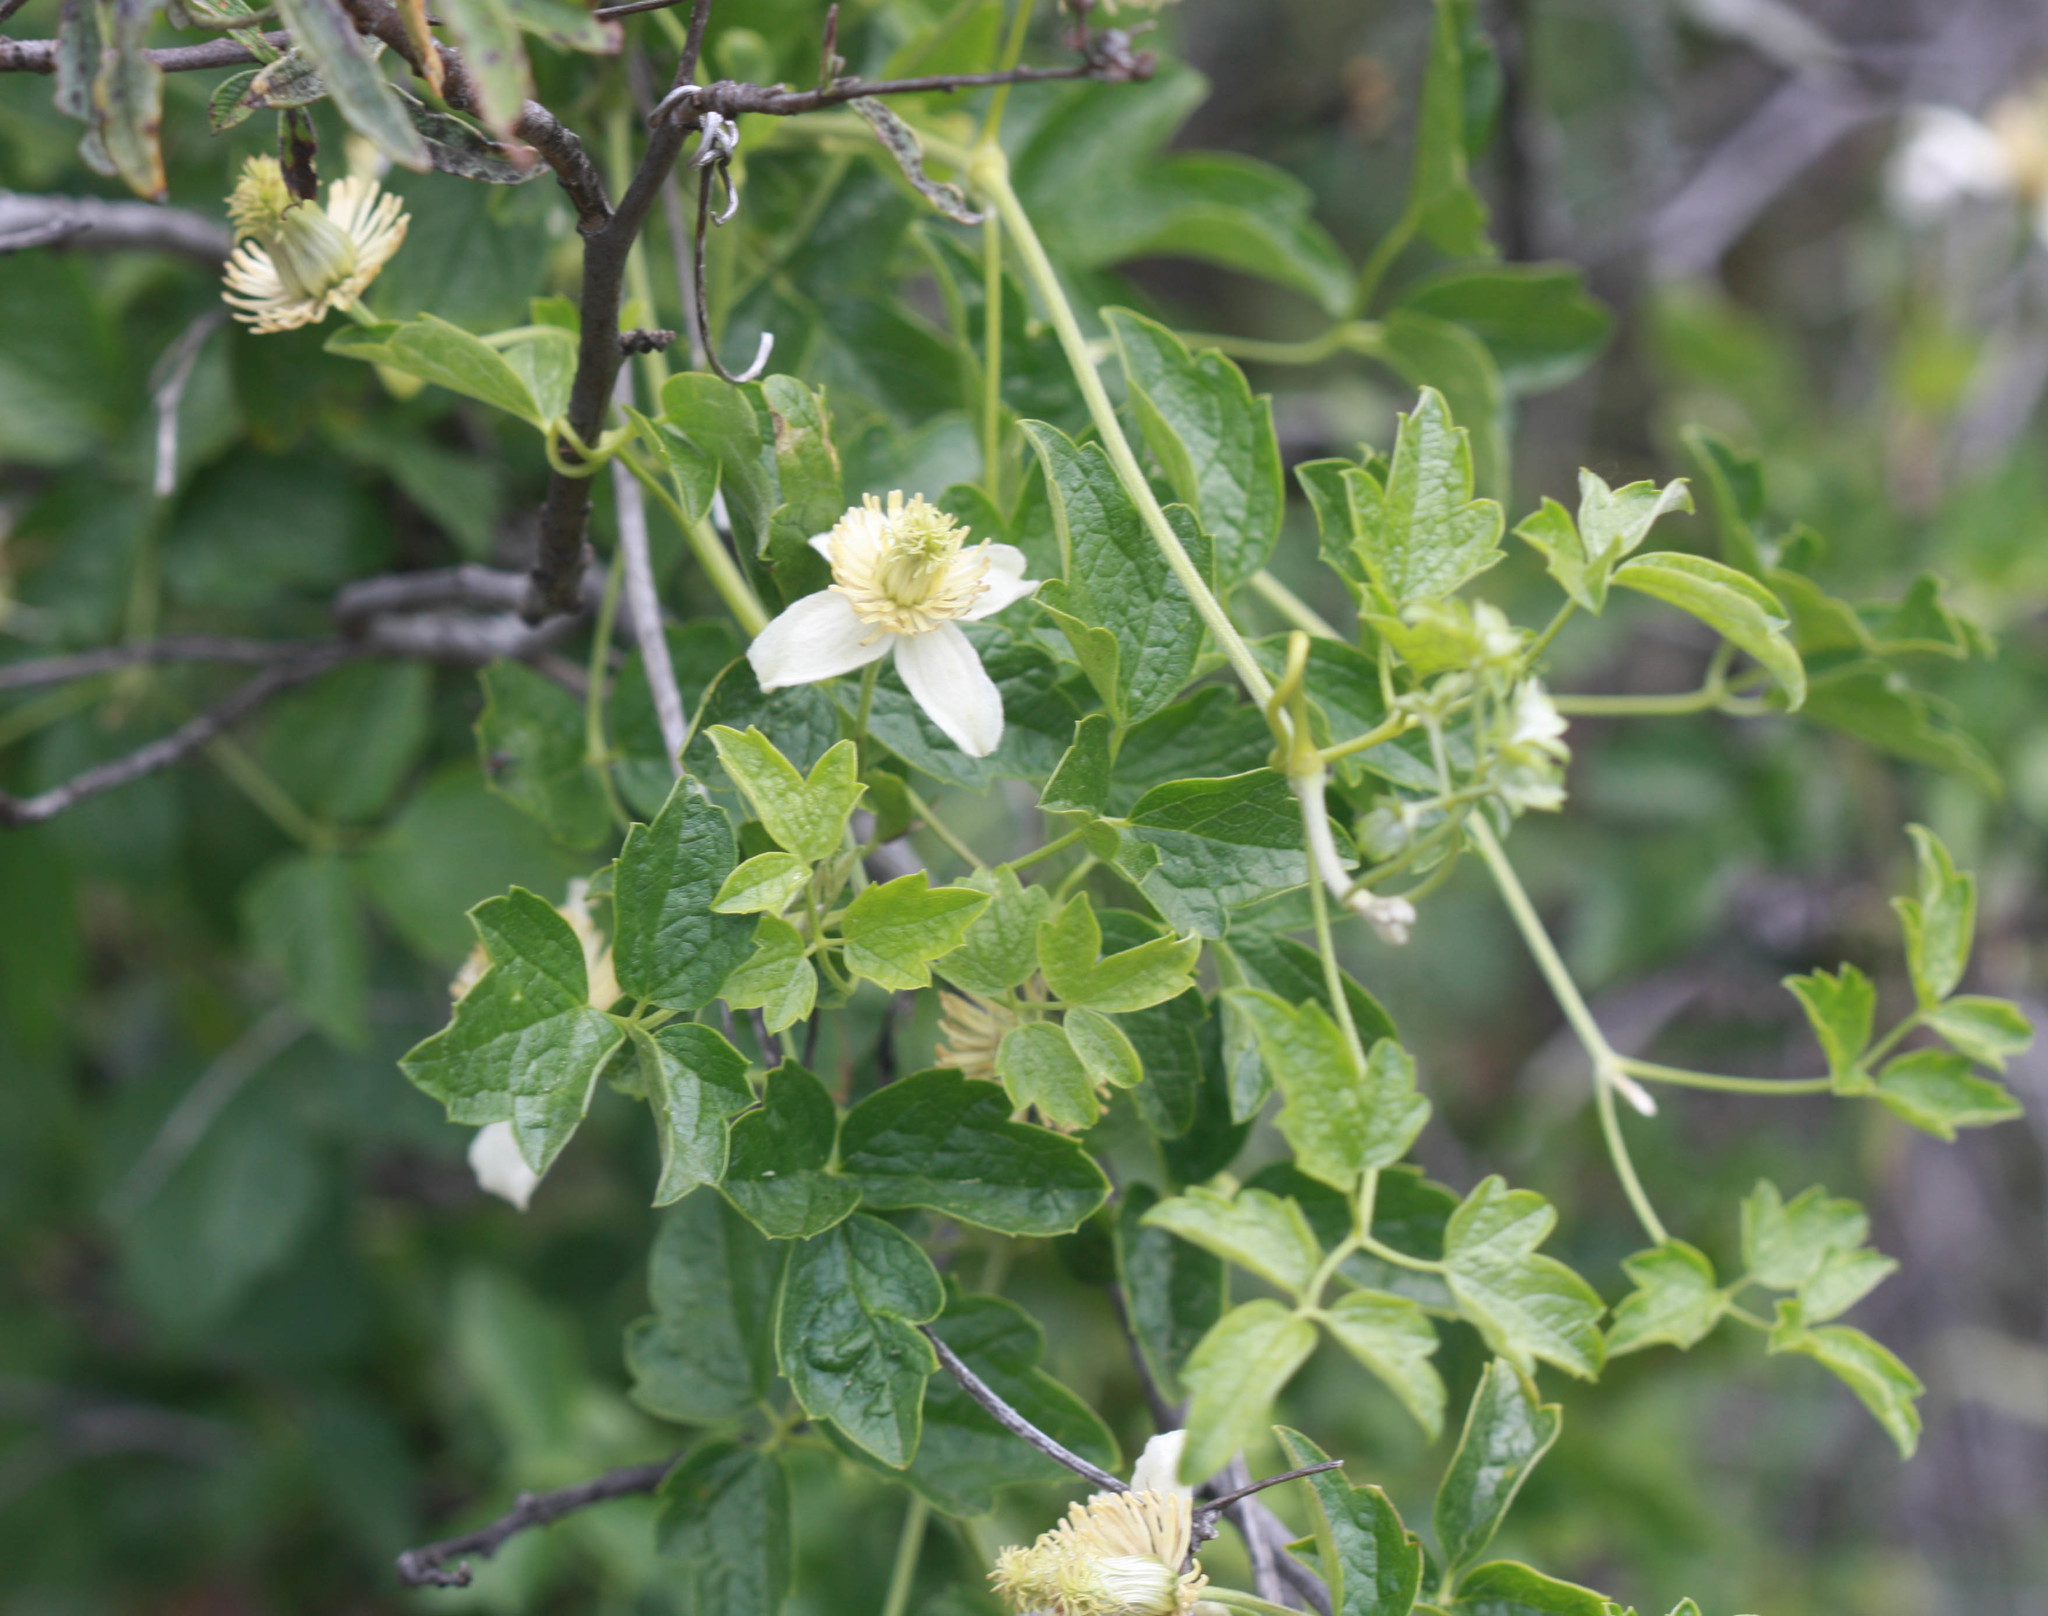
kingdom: Plantae
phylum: Tracheophyta
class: Magnoliopsida
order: Ranunculales
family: Ranunculaceae
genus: Clematis
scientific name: Clematis lasiantha
